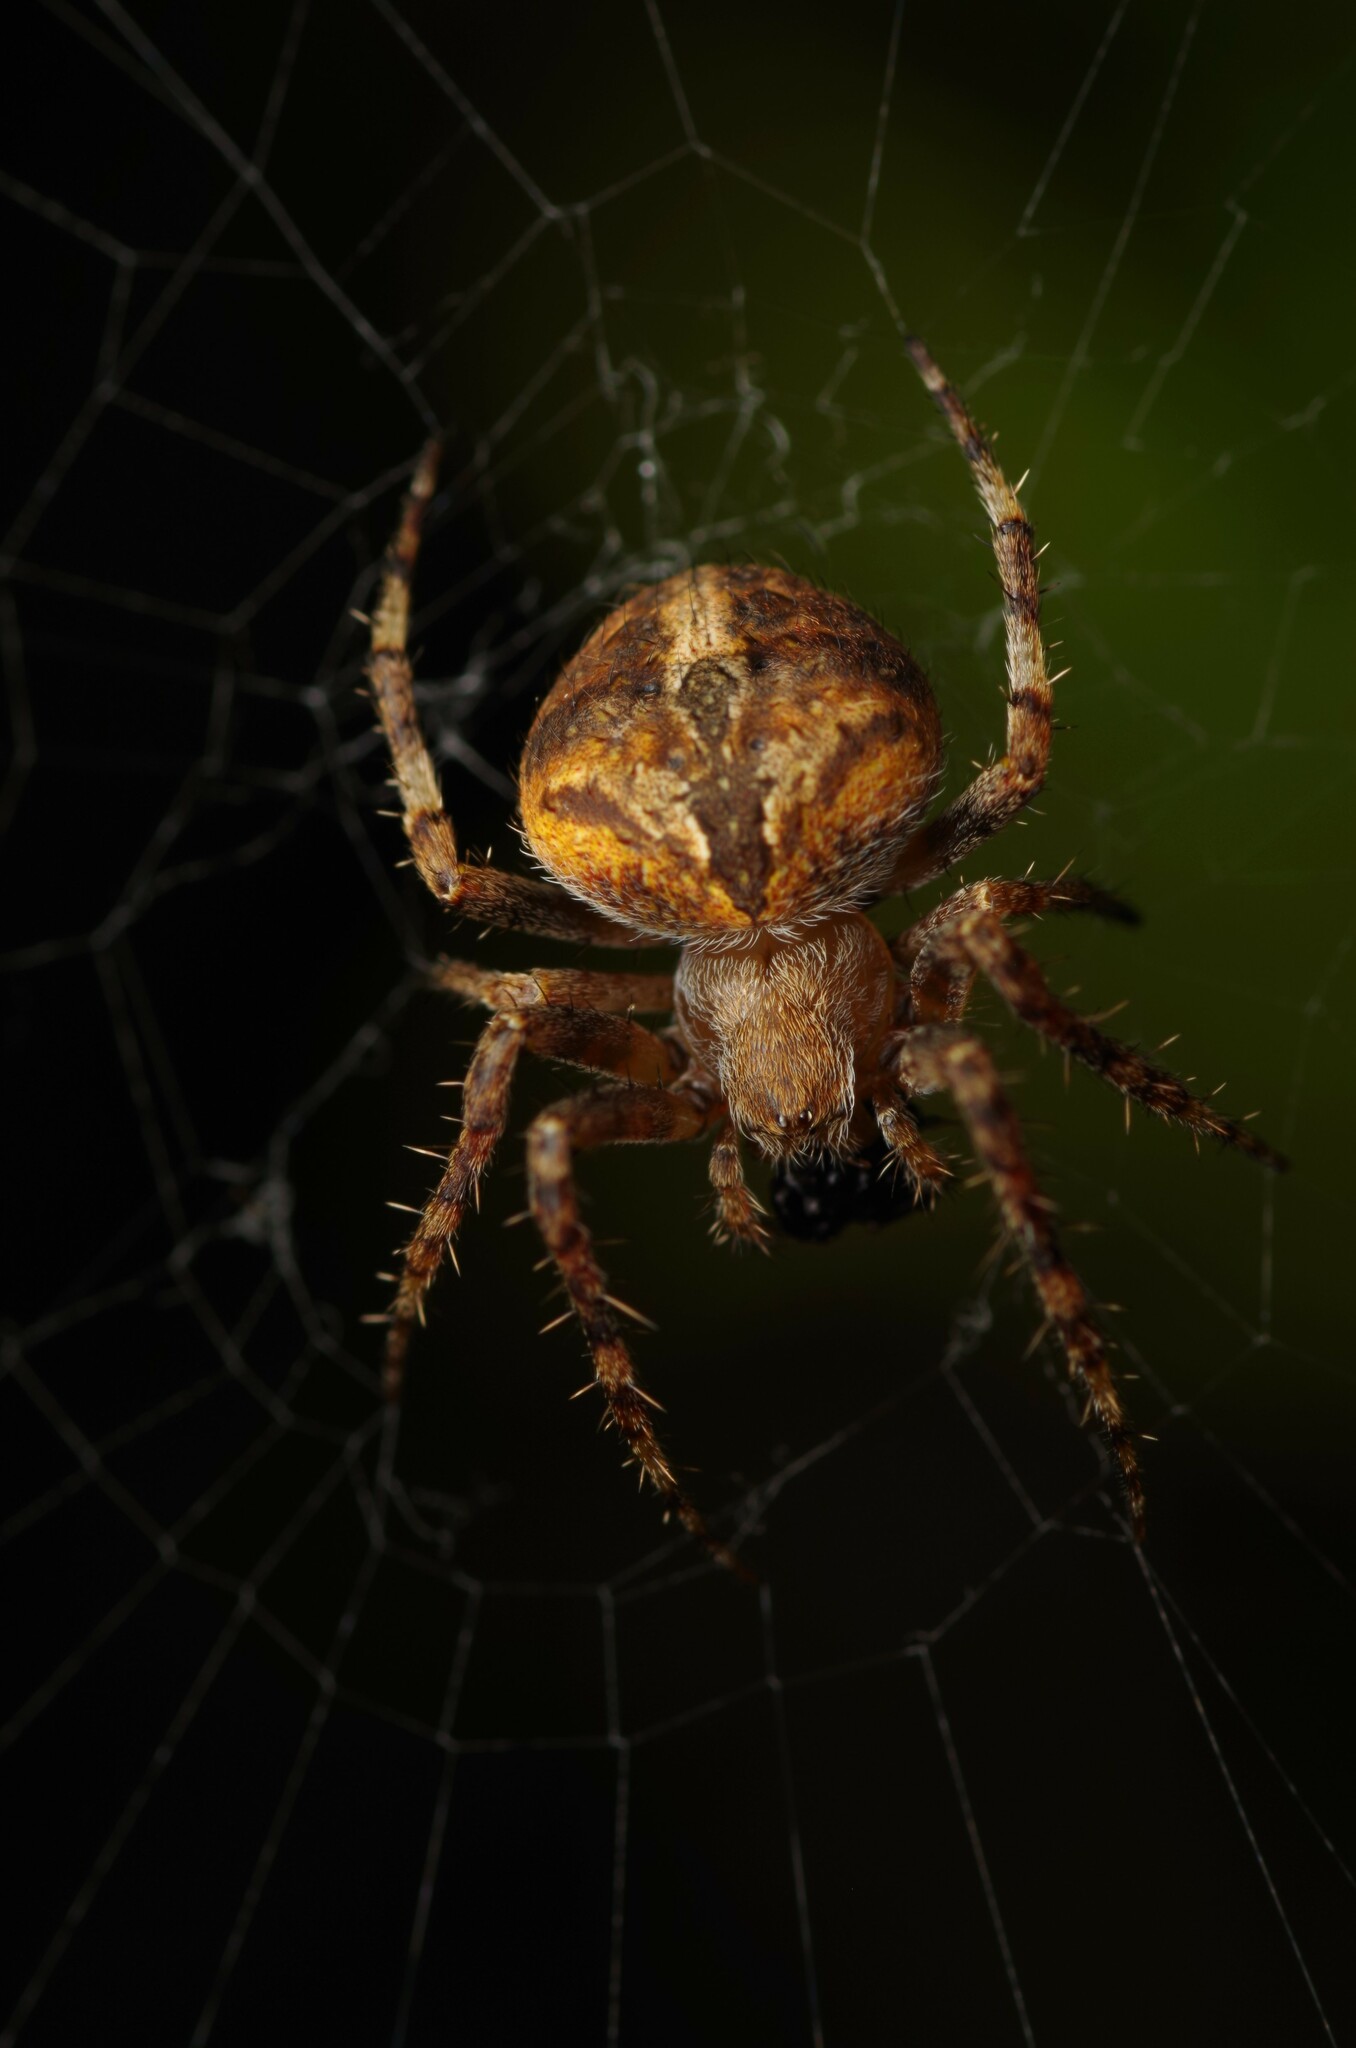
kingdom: Animalia
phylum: Arthropoda
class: Arachnida
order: Araneae
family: Araneidae
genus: Neoscona
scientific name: Neoscona subfusca
